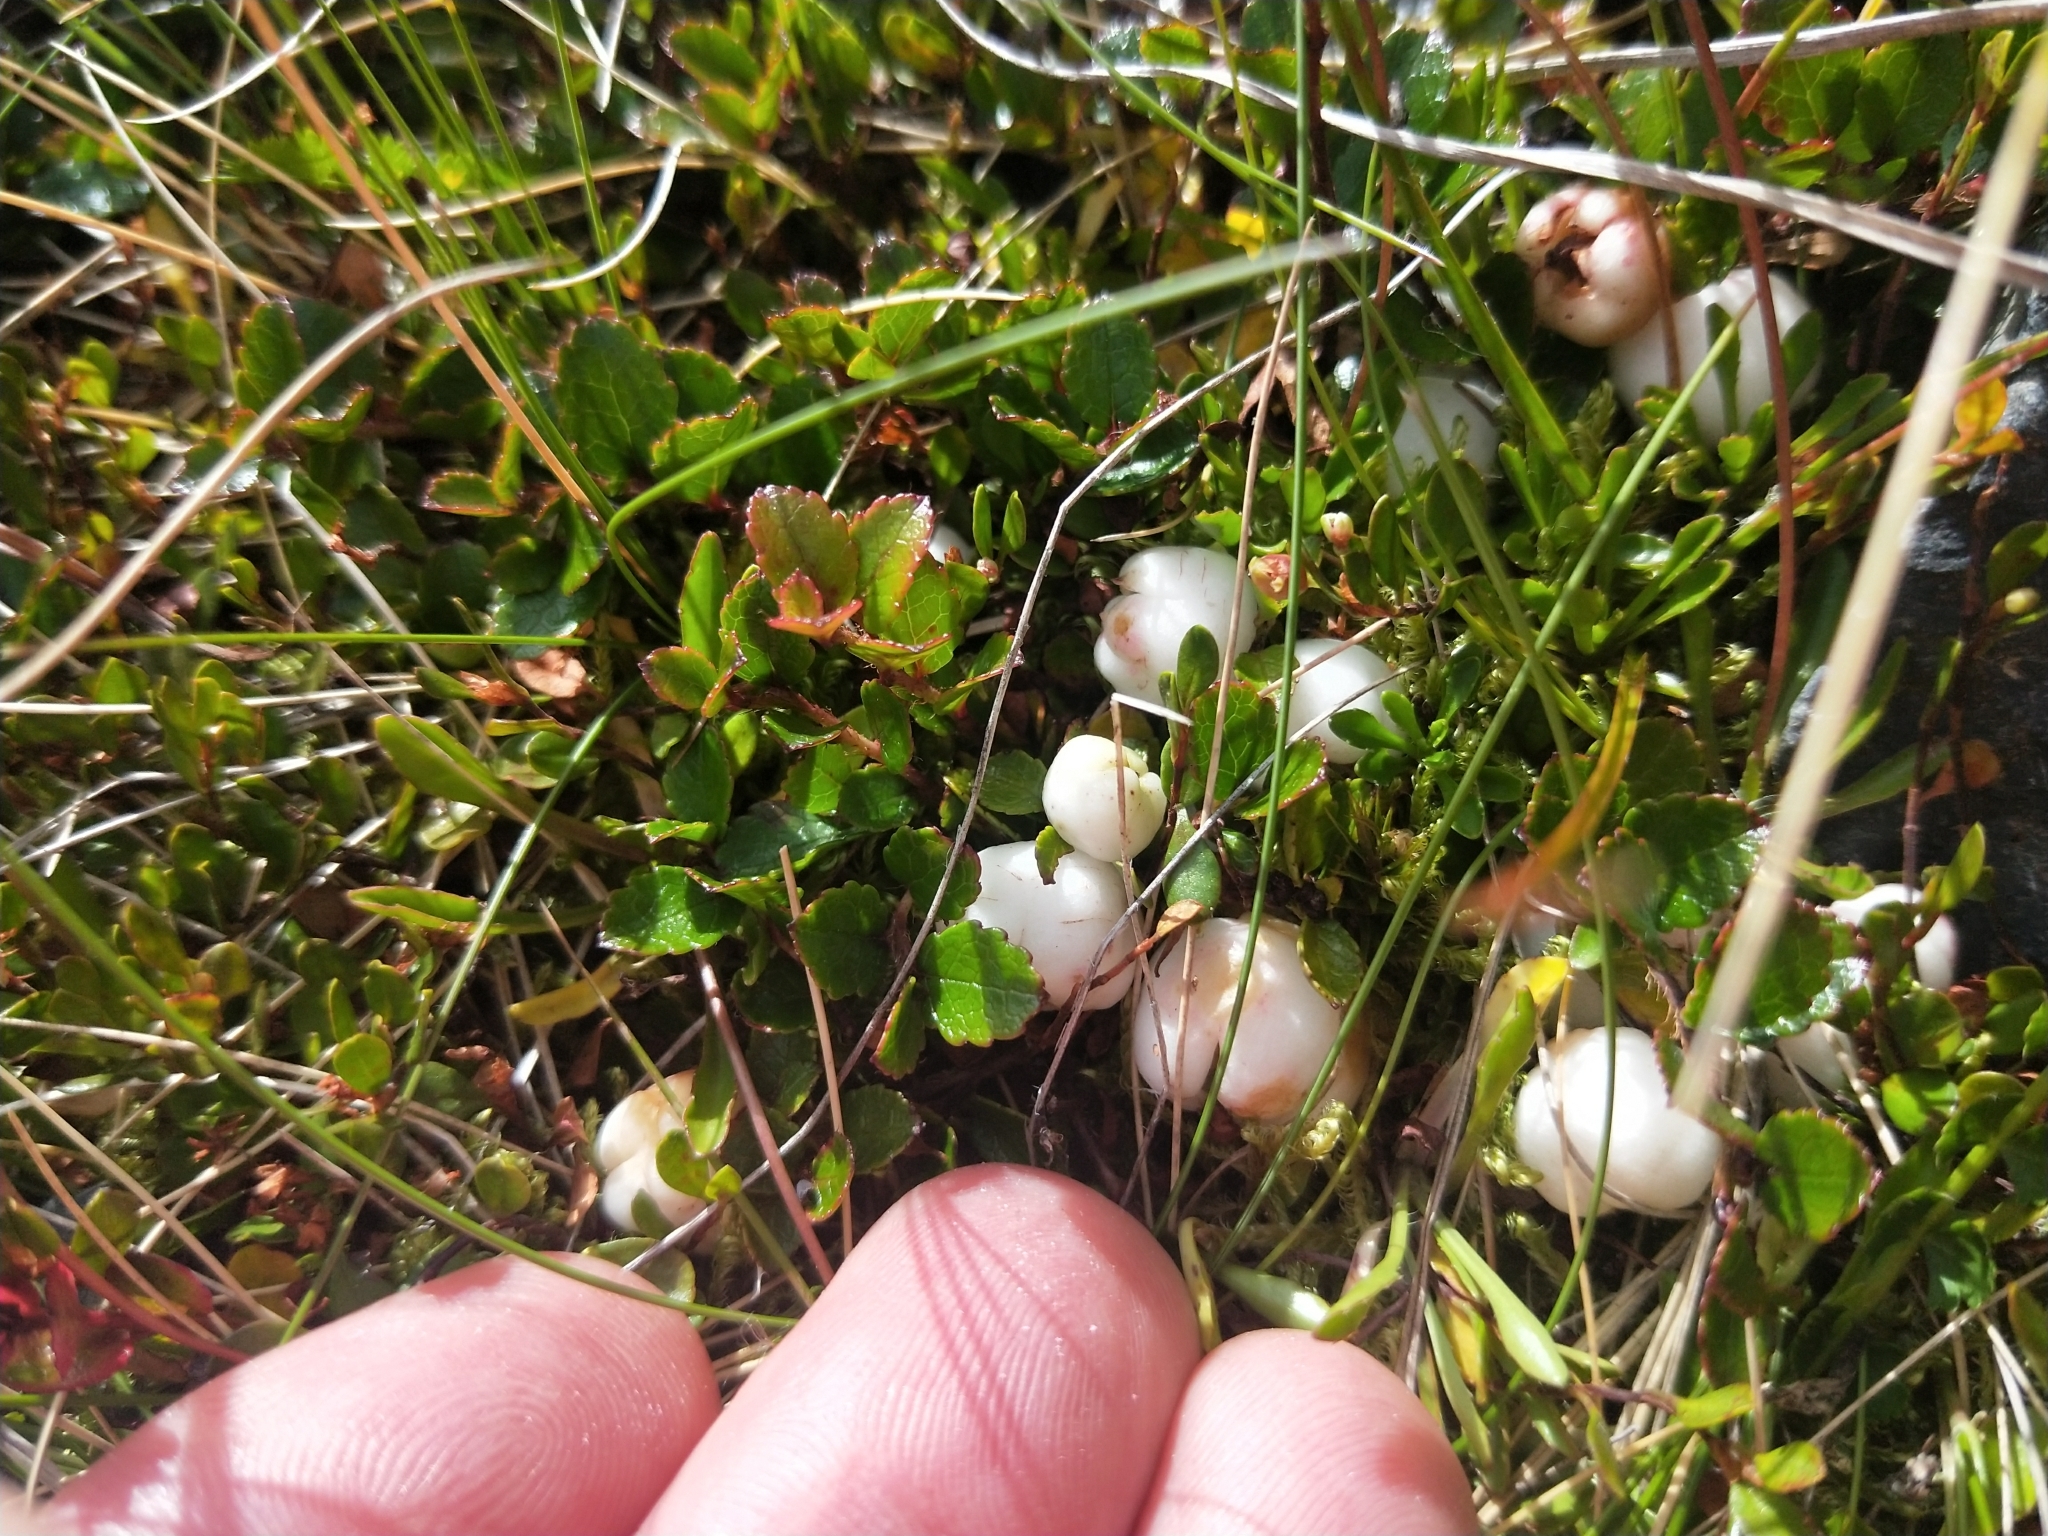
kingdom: Plantae
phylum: Tracheophyta
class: Magnoliopsida
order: Ericales
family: Ericaceae
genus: Gaultheria
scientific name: Gaultheria depressa
